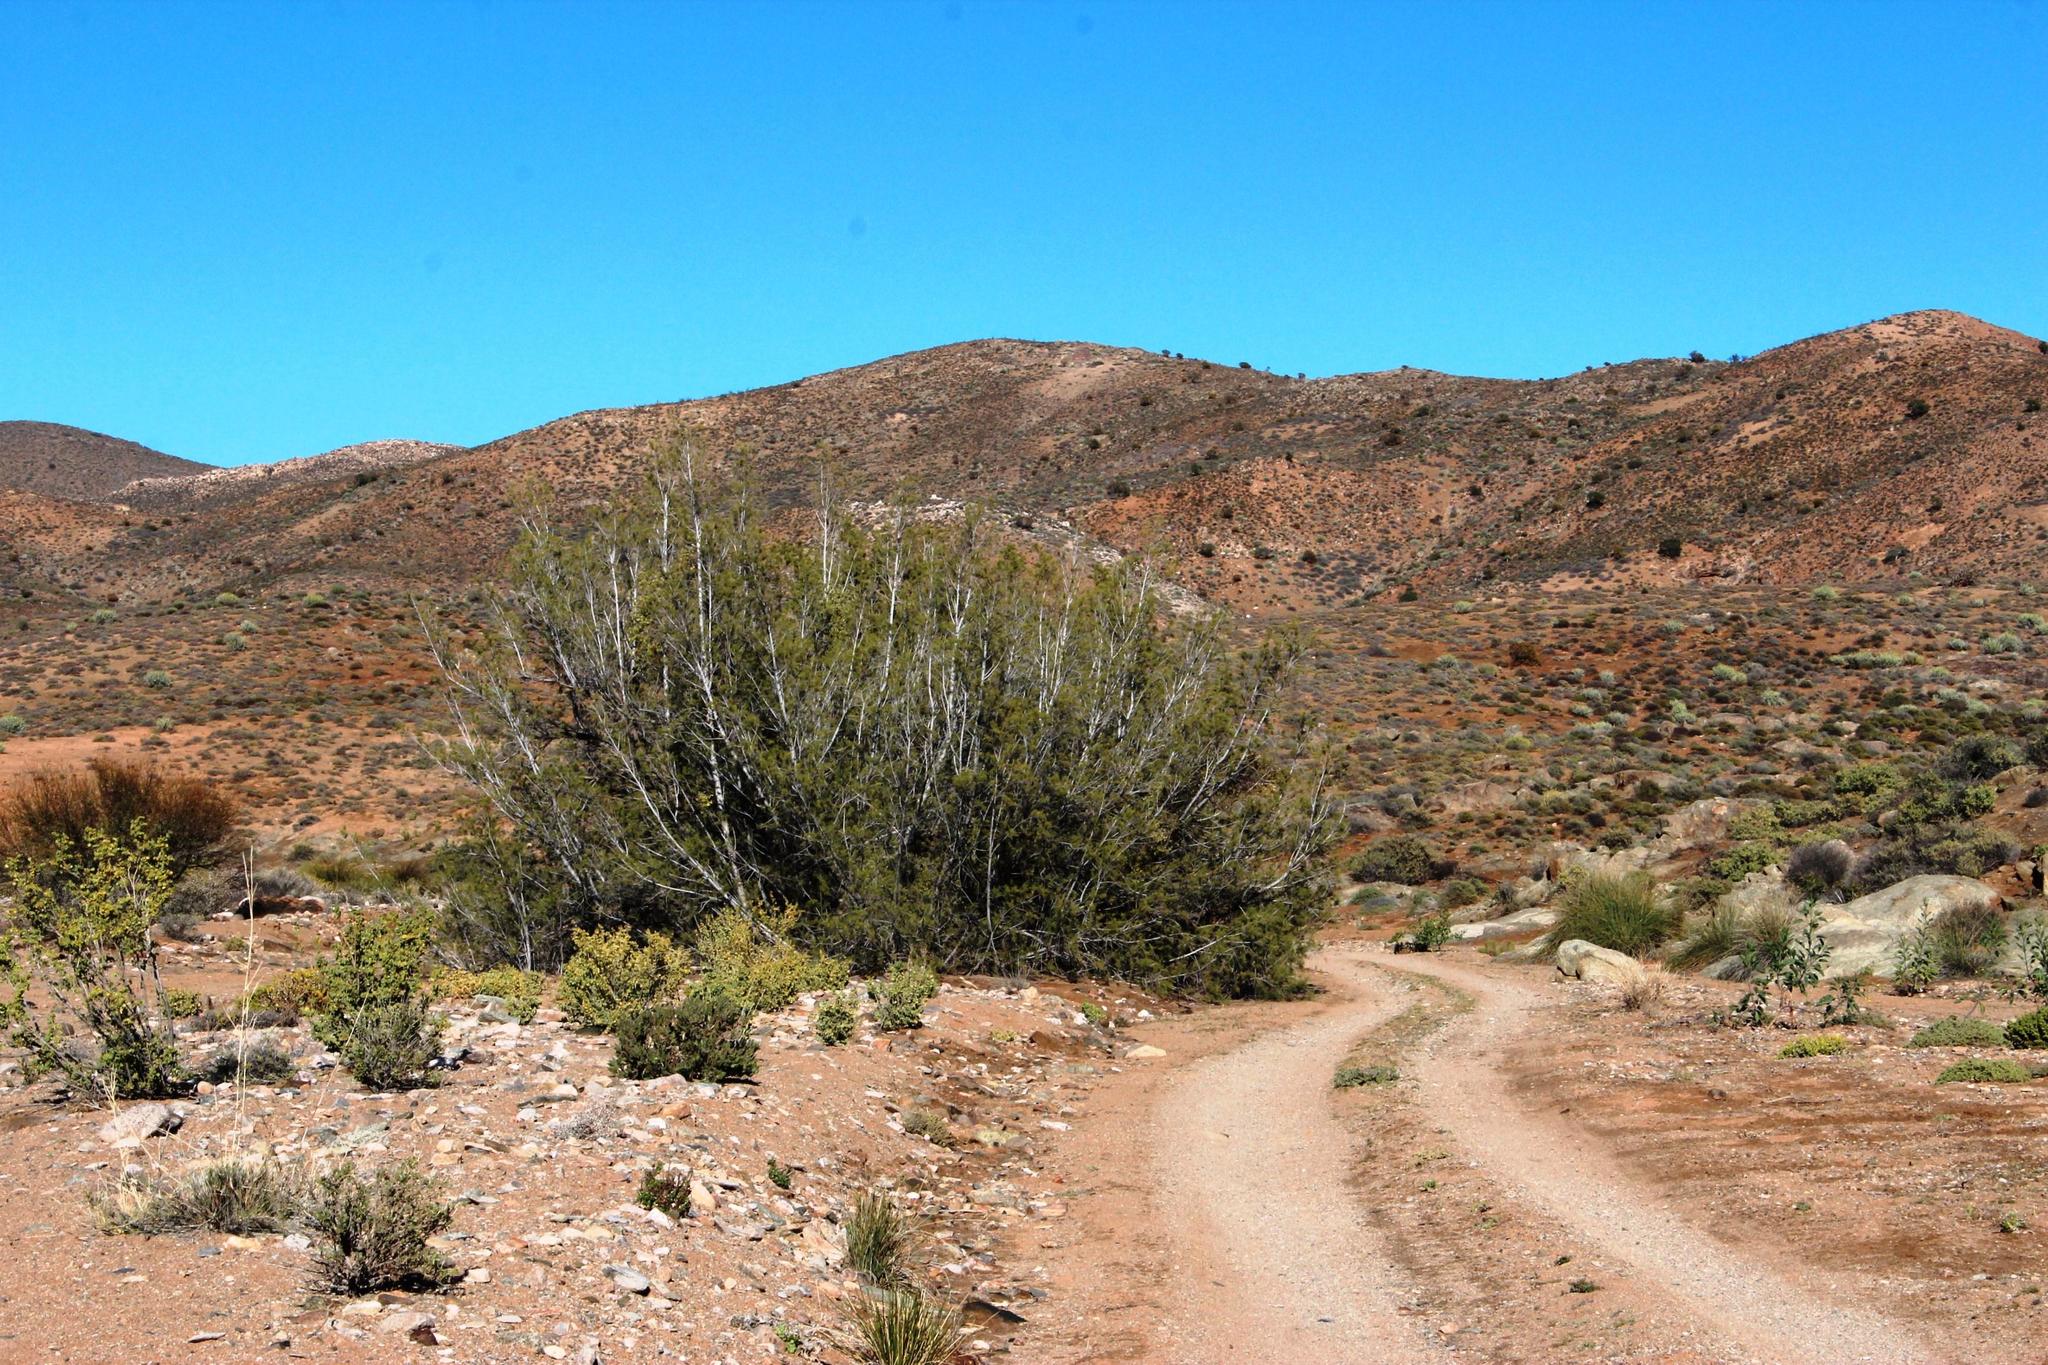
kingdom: Plantae
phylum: Tracheophyta
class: Magnoliopsida
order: Caryophyllales
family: Tamaricaceae
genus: Tamarix
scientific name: Tamarix usneoides
